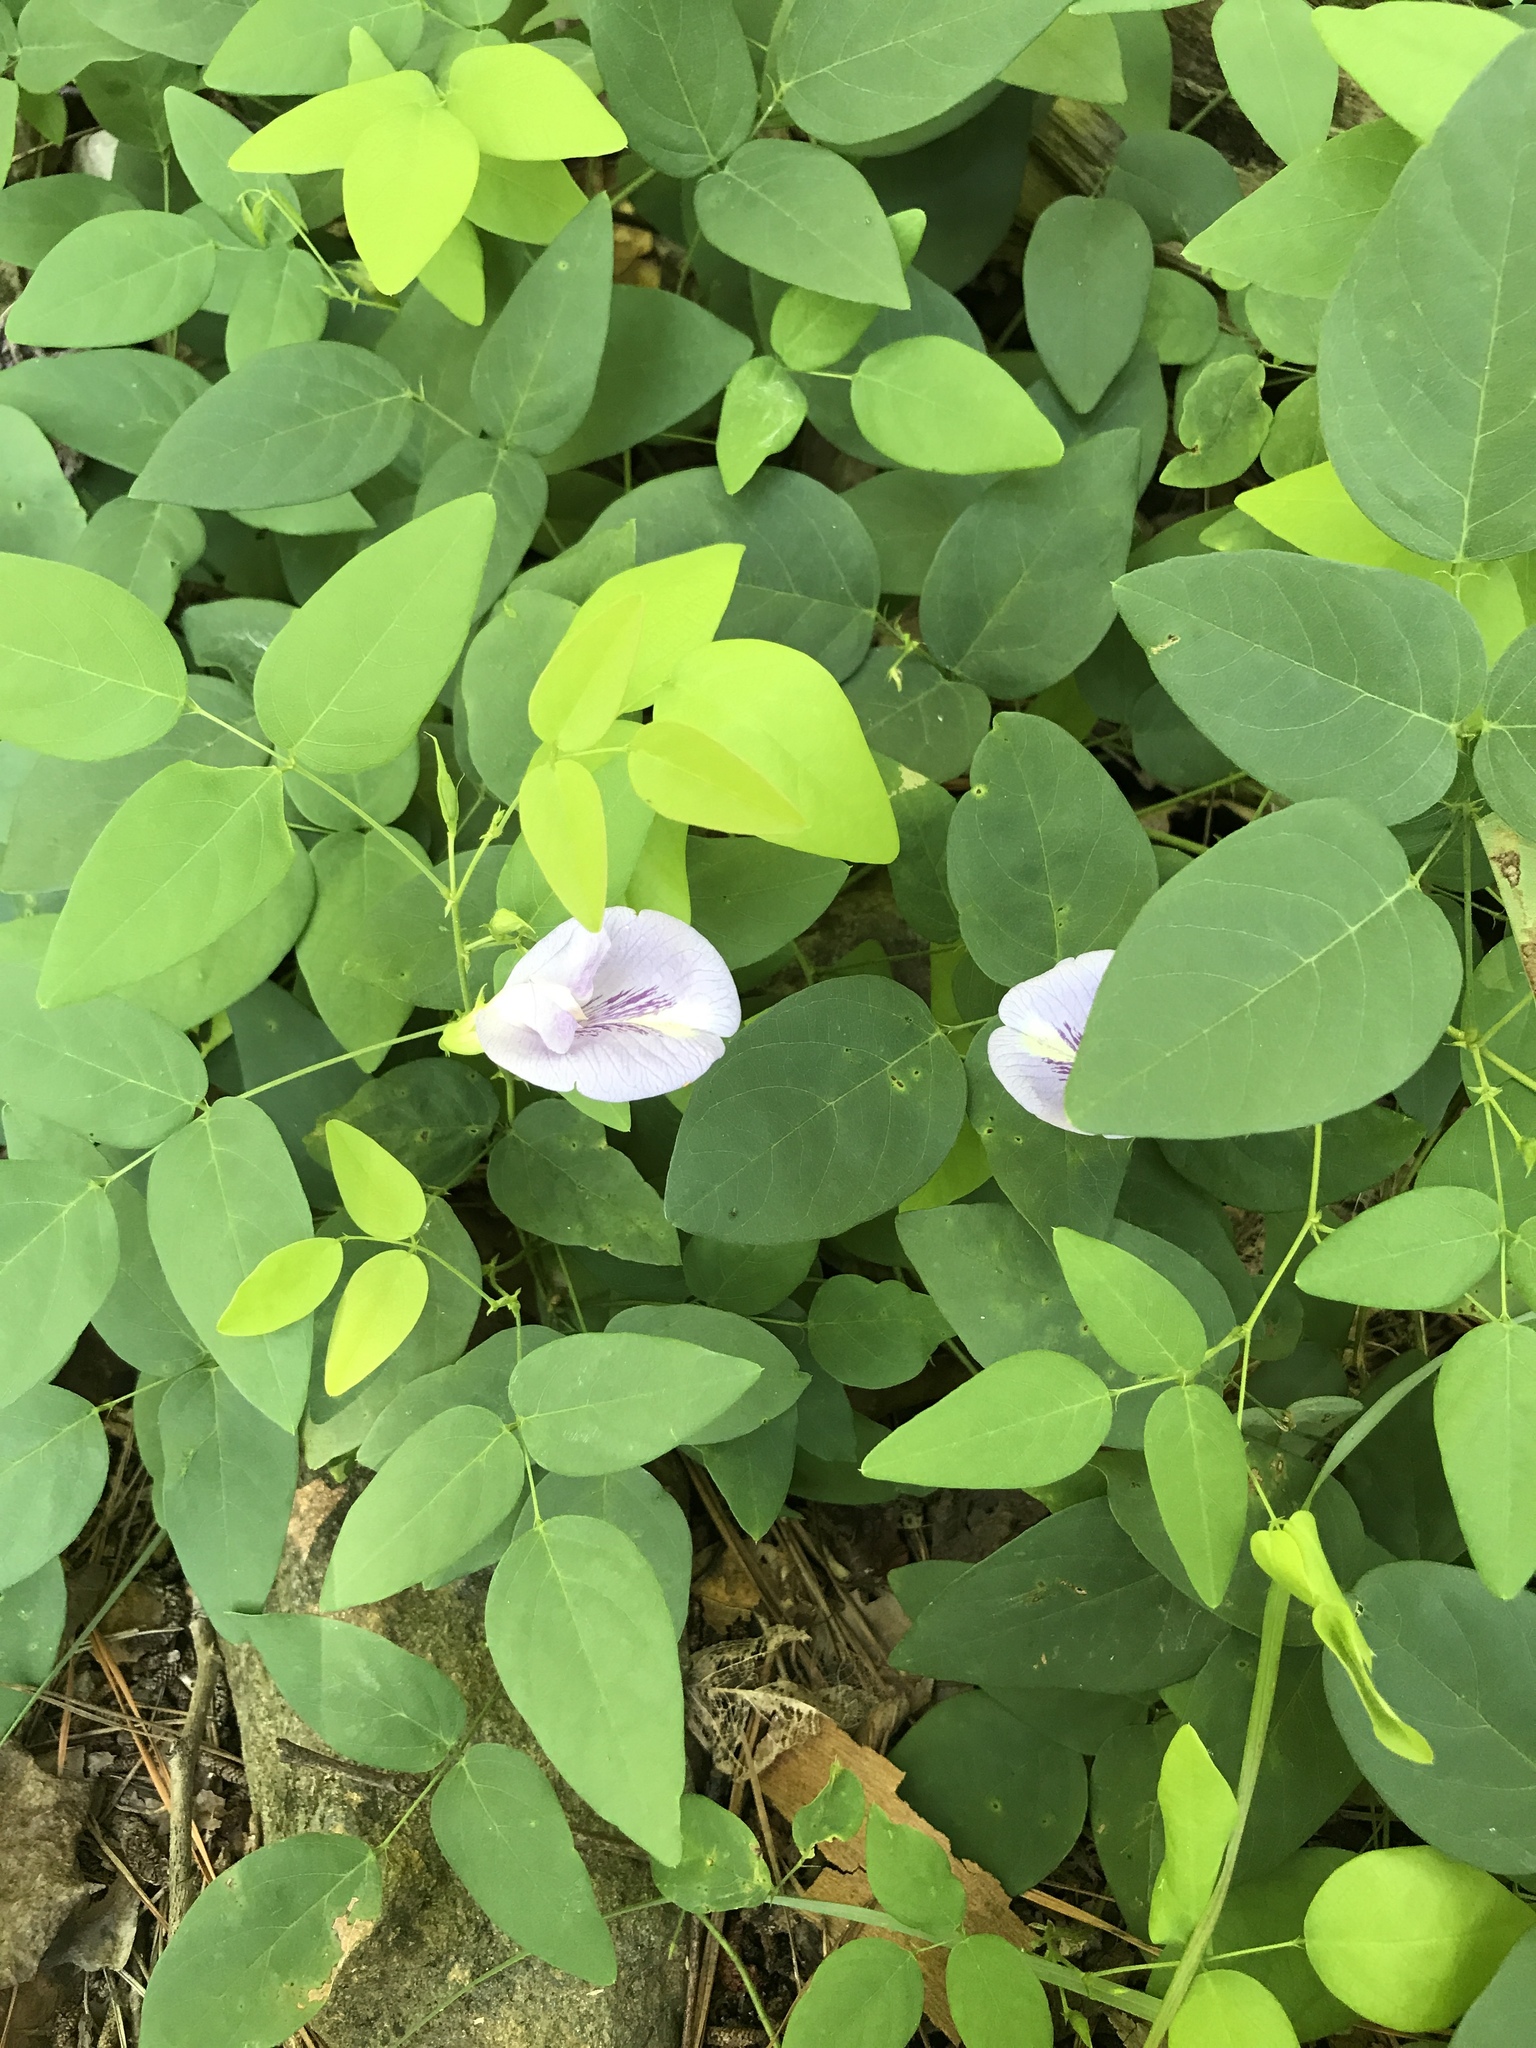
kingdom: Plantae
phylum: Tracheophyta
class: Magnoliopsida
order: Fabales
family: Fabaceae
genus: Clitoria
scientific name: Clitoria mariana
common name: Butterfly-pea
